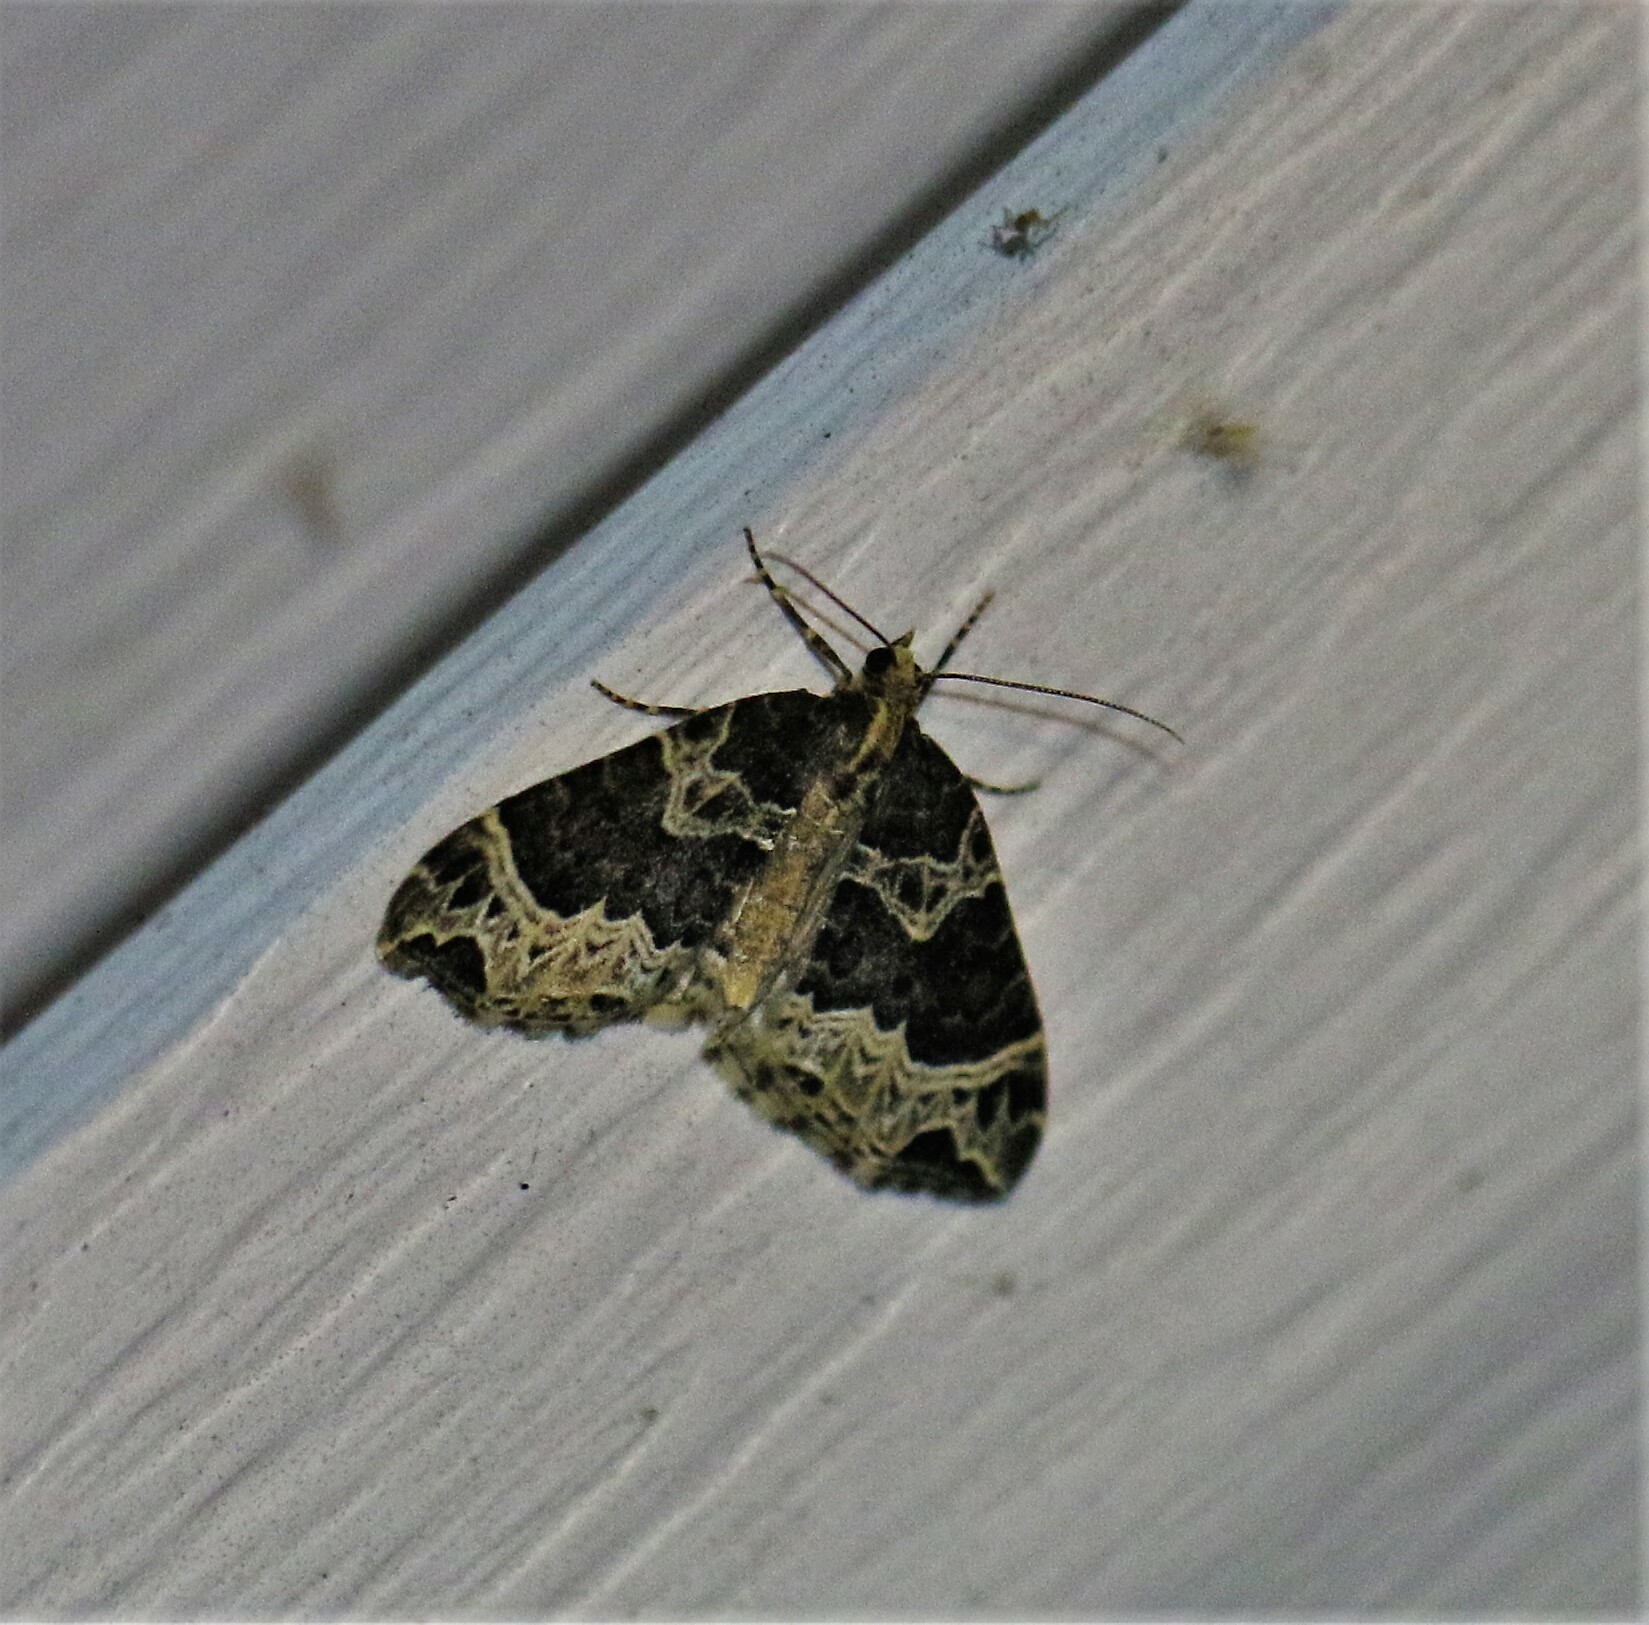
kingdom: Animalia
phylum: Arthropoda
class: Insecta
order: Lepidoptera
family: Geometridae
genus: Ecliptopera
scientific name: Ecliptopera silaceata
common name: Small phoenix
